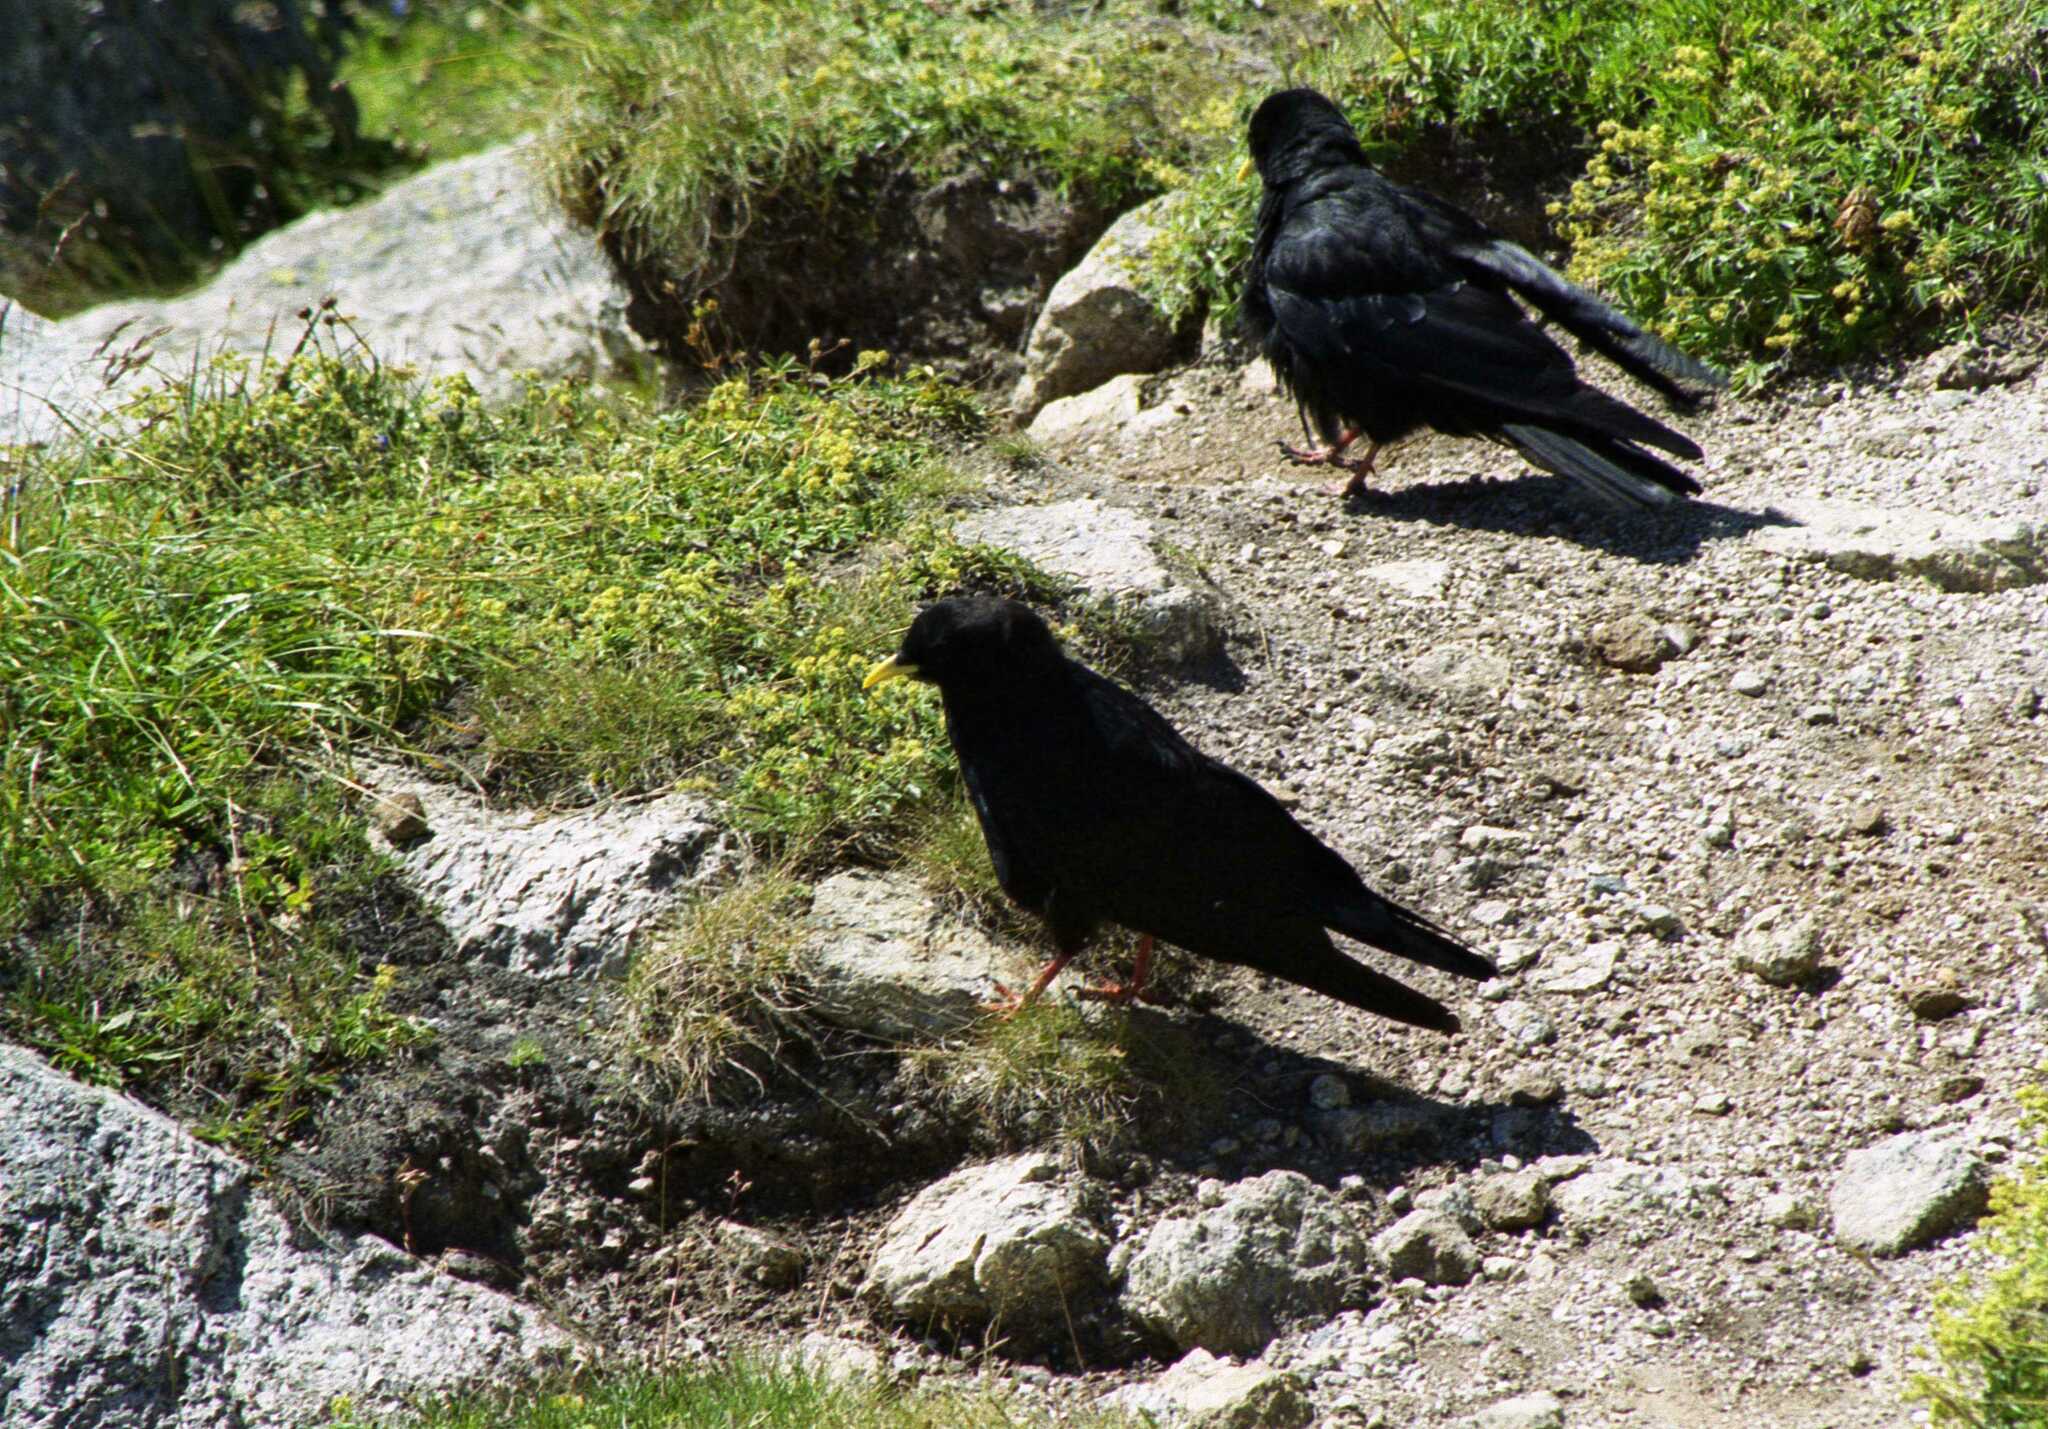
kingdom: Animalia
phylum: Chordata
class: Aves
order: Passeriformes
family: Corvidae
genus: Pyrrhocorax
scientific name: Pyrrhocorax graculus
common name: Alpine chough
